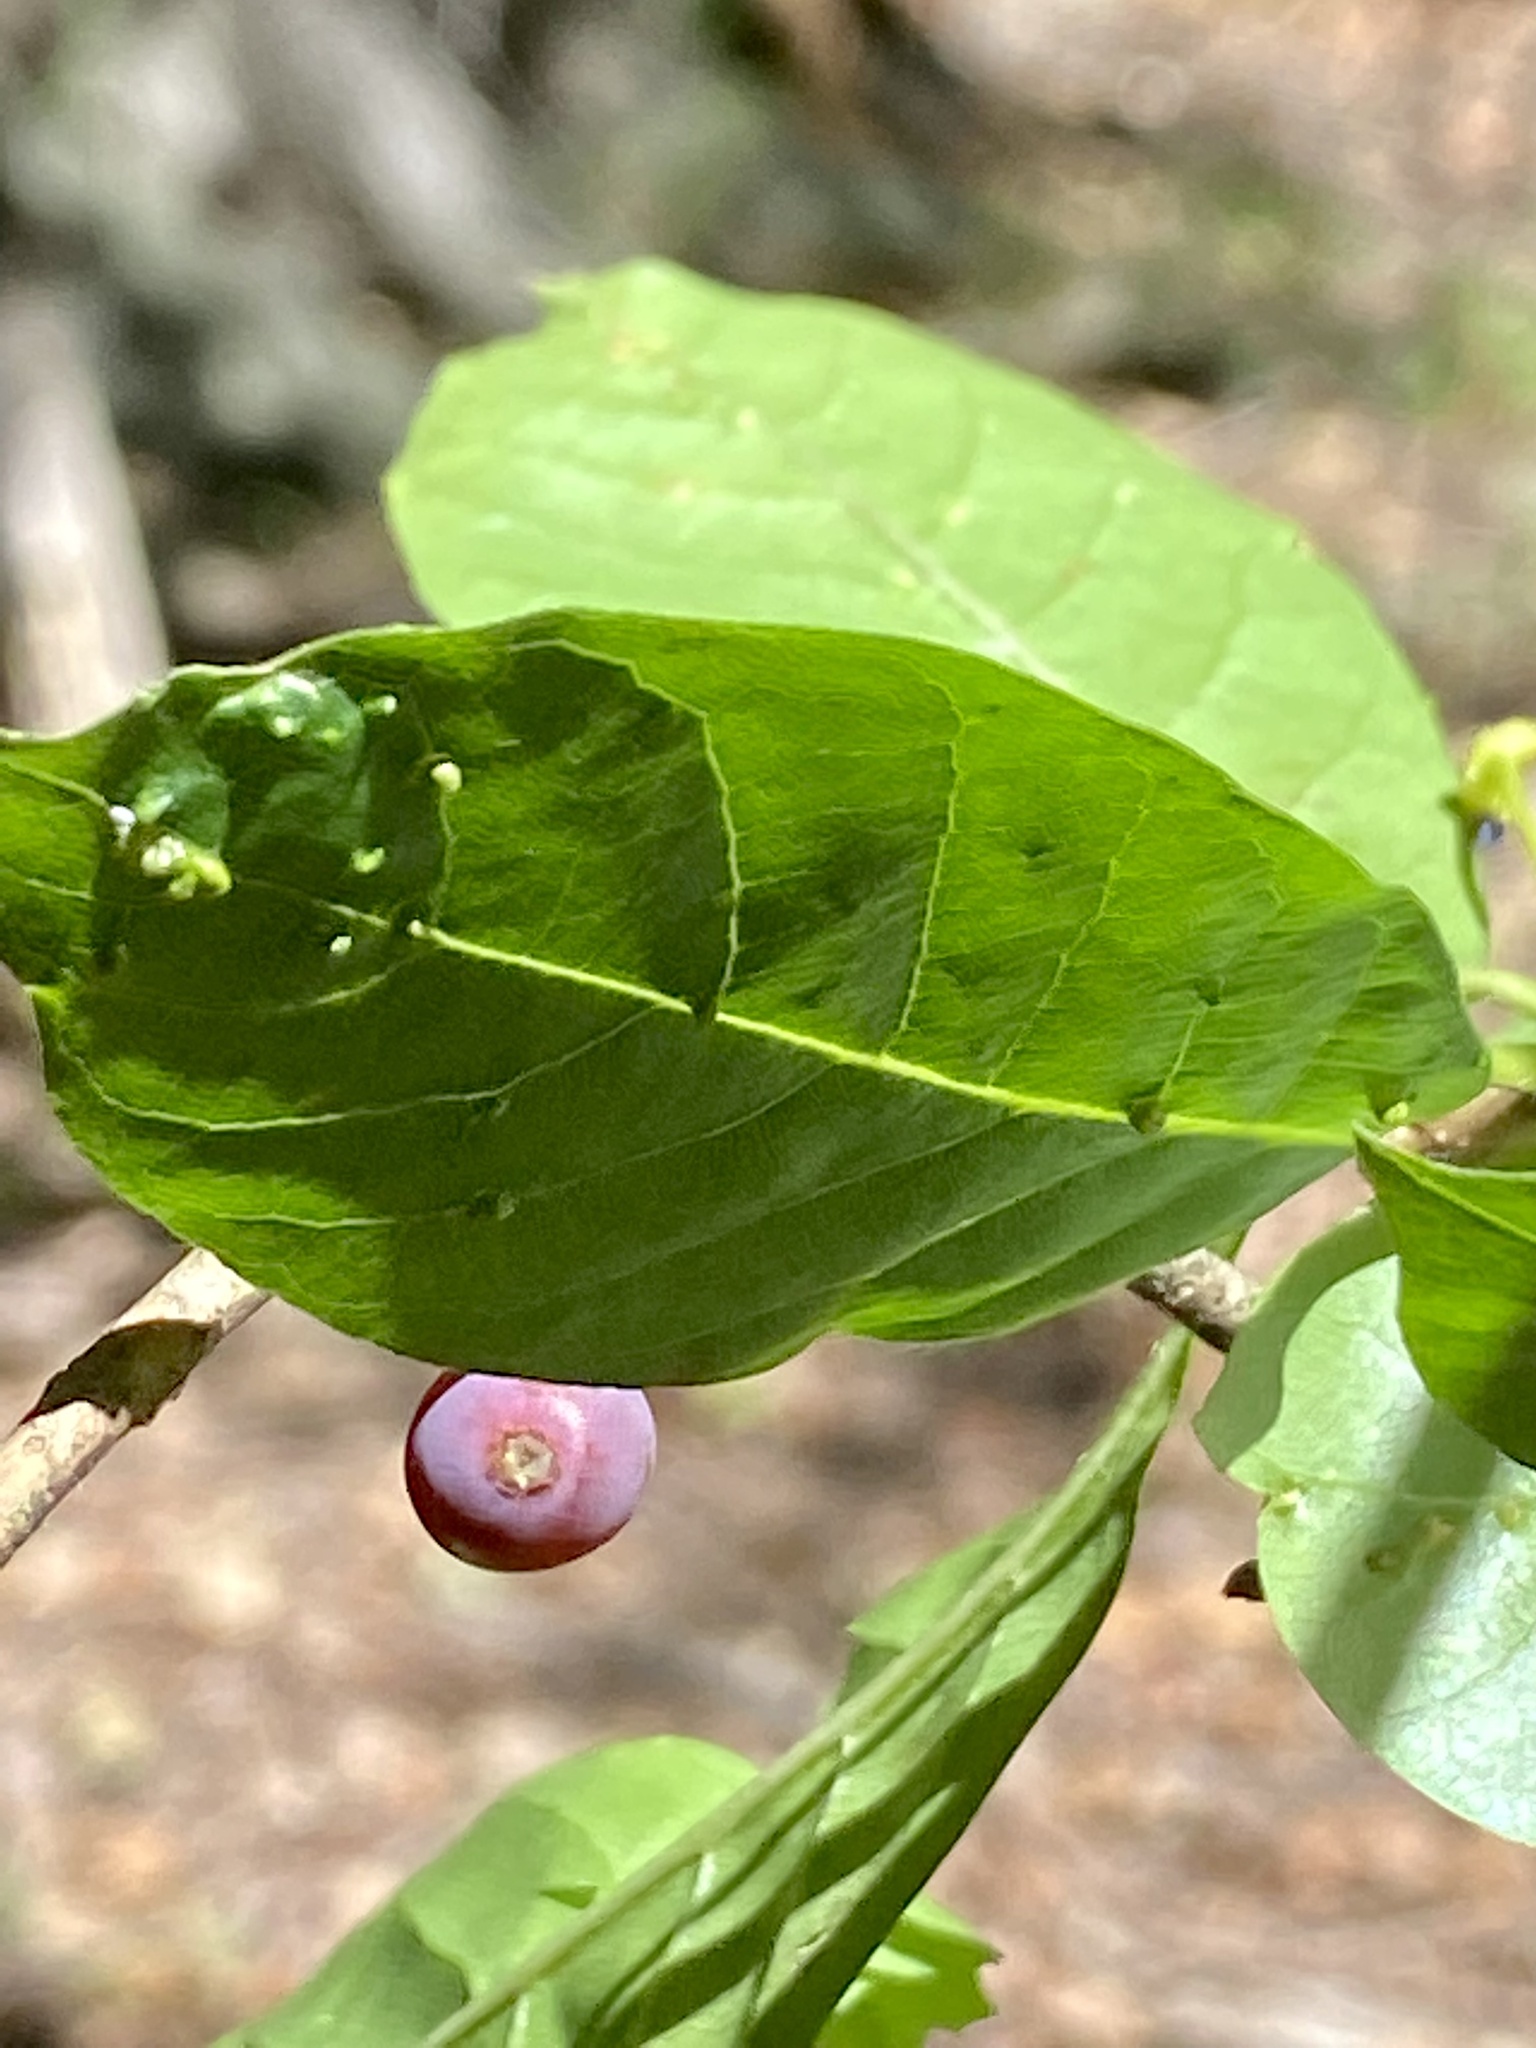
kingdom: Animalia
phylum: Arthropoda
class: Arachnida
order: Trombidiformes
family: Eriophyidae
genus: Aceria
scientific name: Aceria
